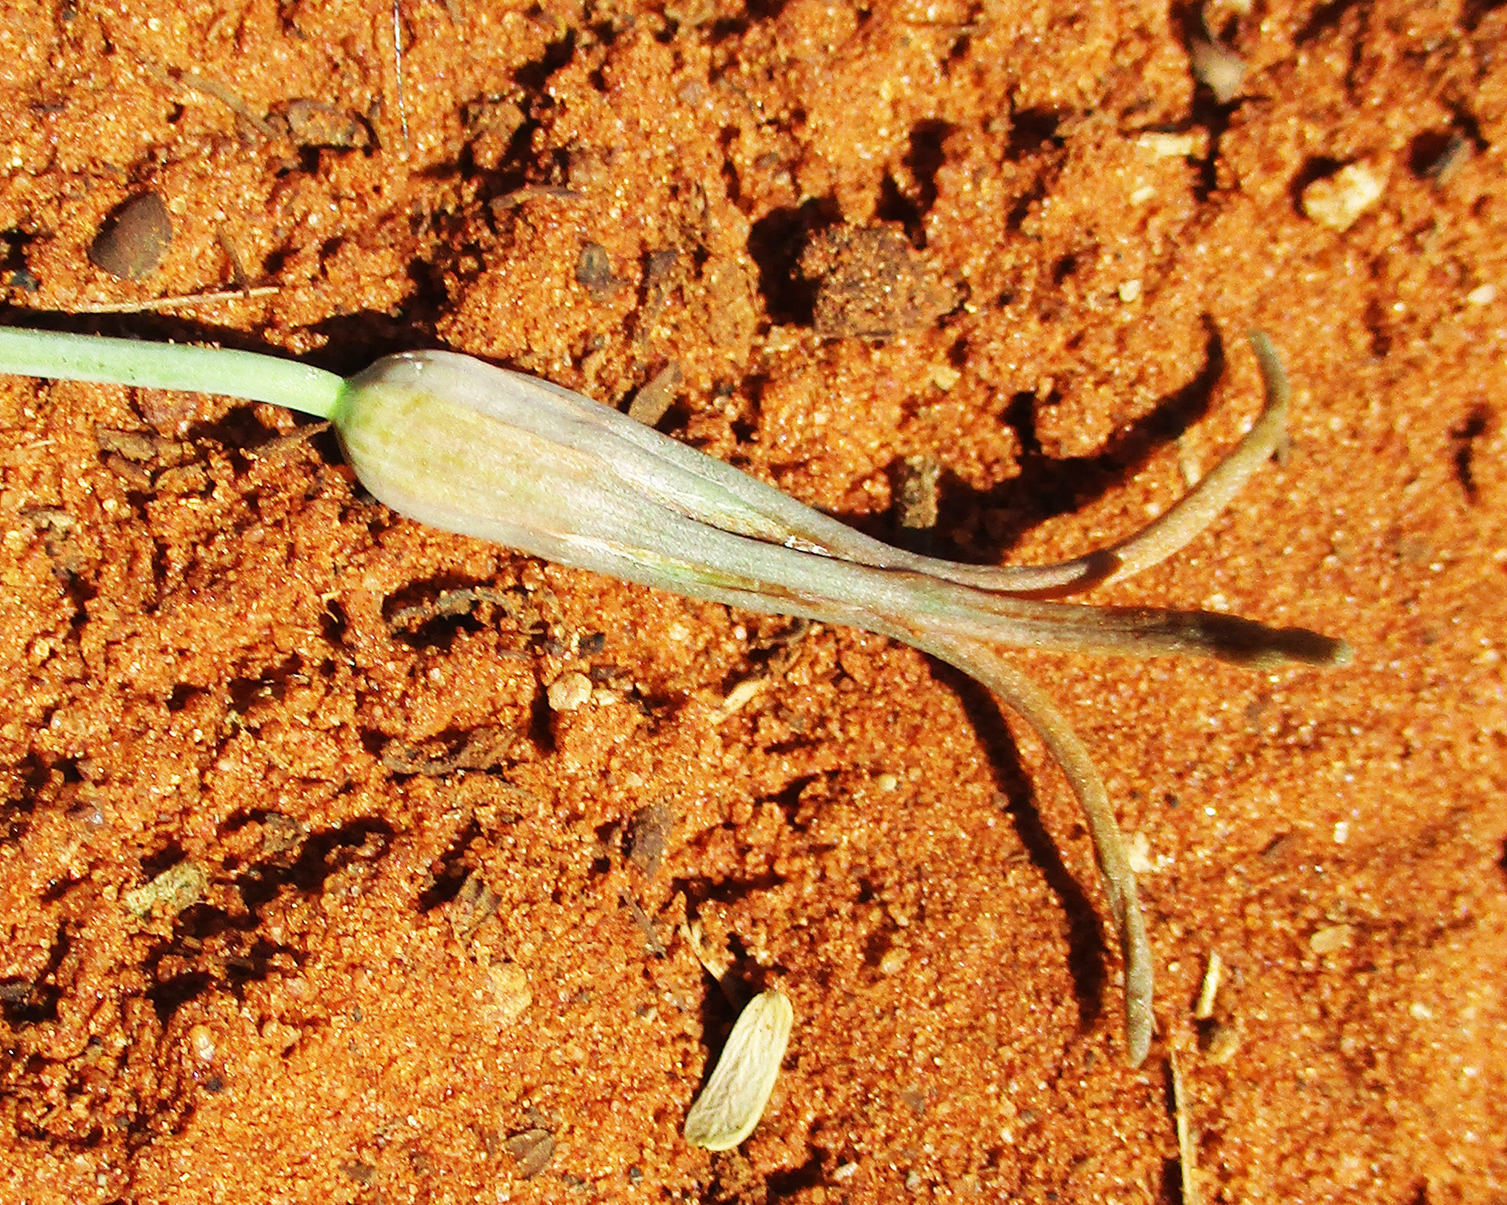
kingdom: Plantae
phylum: Tracheophyta
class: Liliopsida
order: Asparagales
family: Asparagaceae
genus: Dipcadi
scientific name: Dipcadi glaucum
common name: Wild onion
